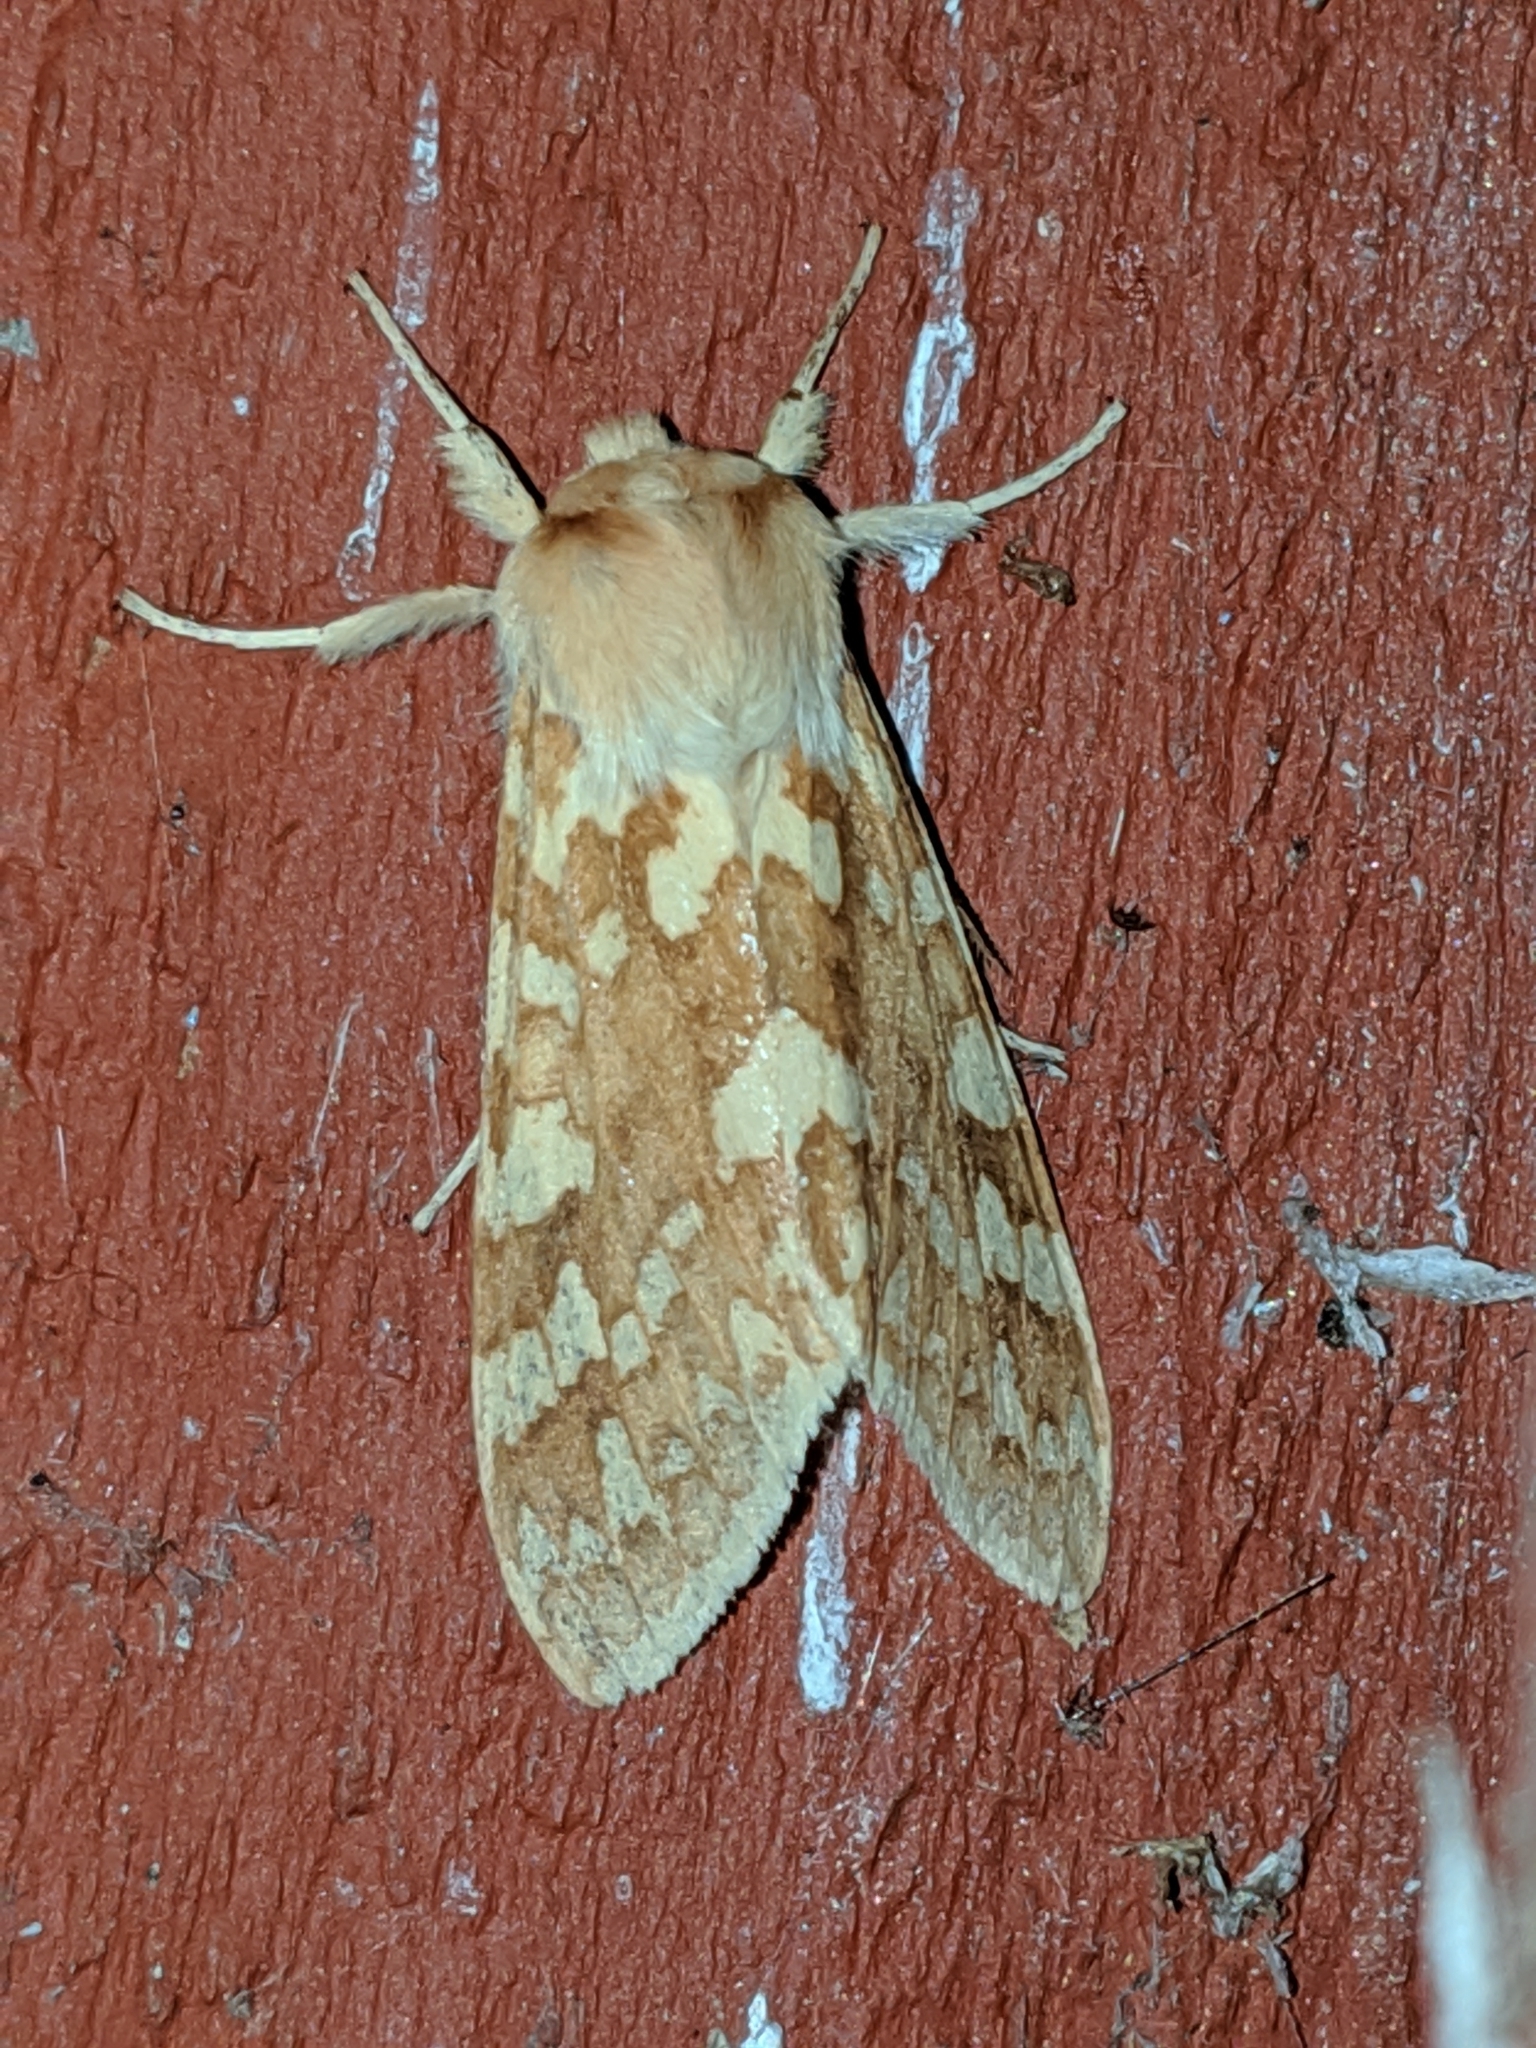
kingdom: Animalia
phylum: Arthropoda
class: Insecta
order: Lepidoptera
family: Erebidae
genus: Lophocampa
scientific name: Lophocampa maculata
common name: Spotted tussock moth
